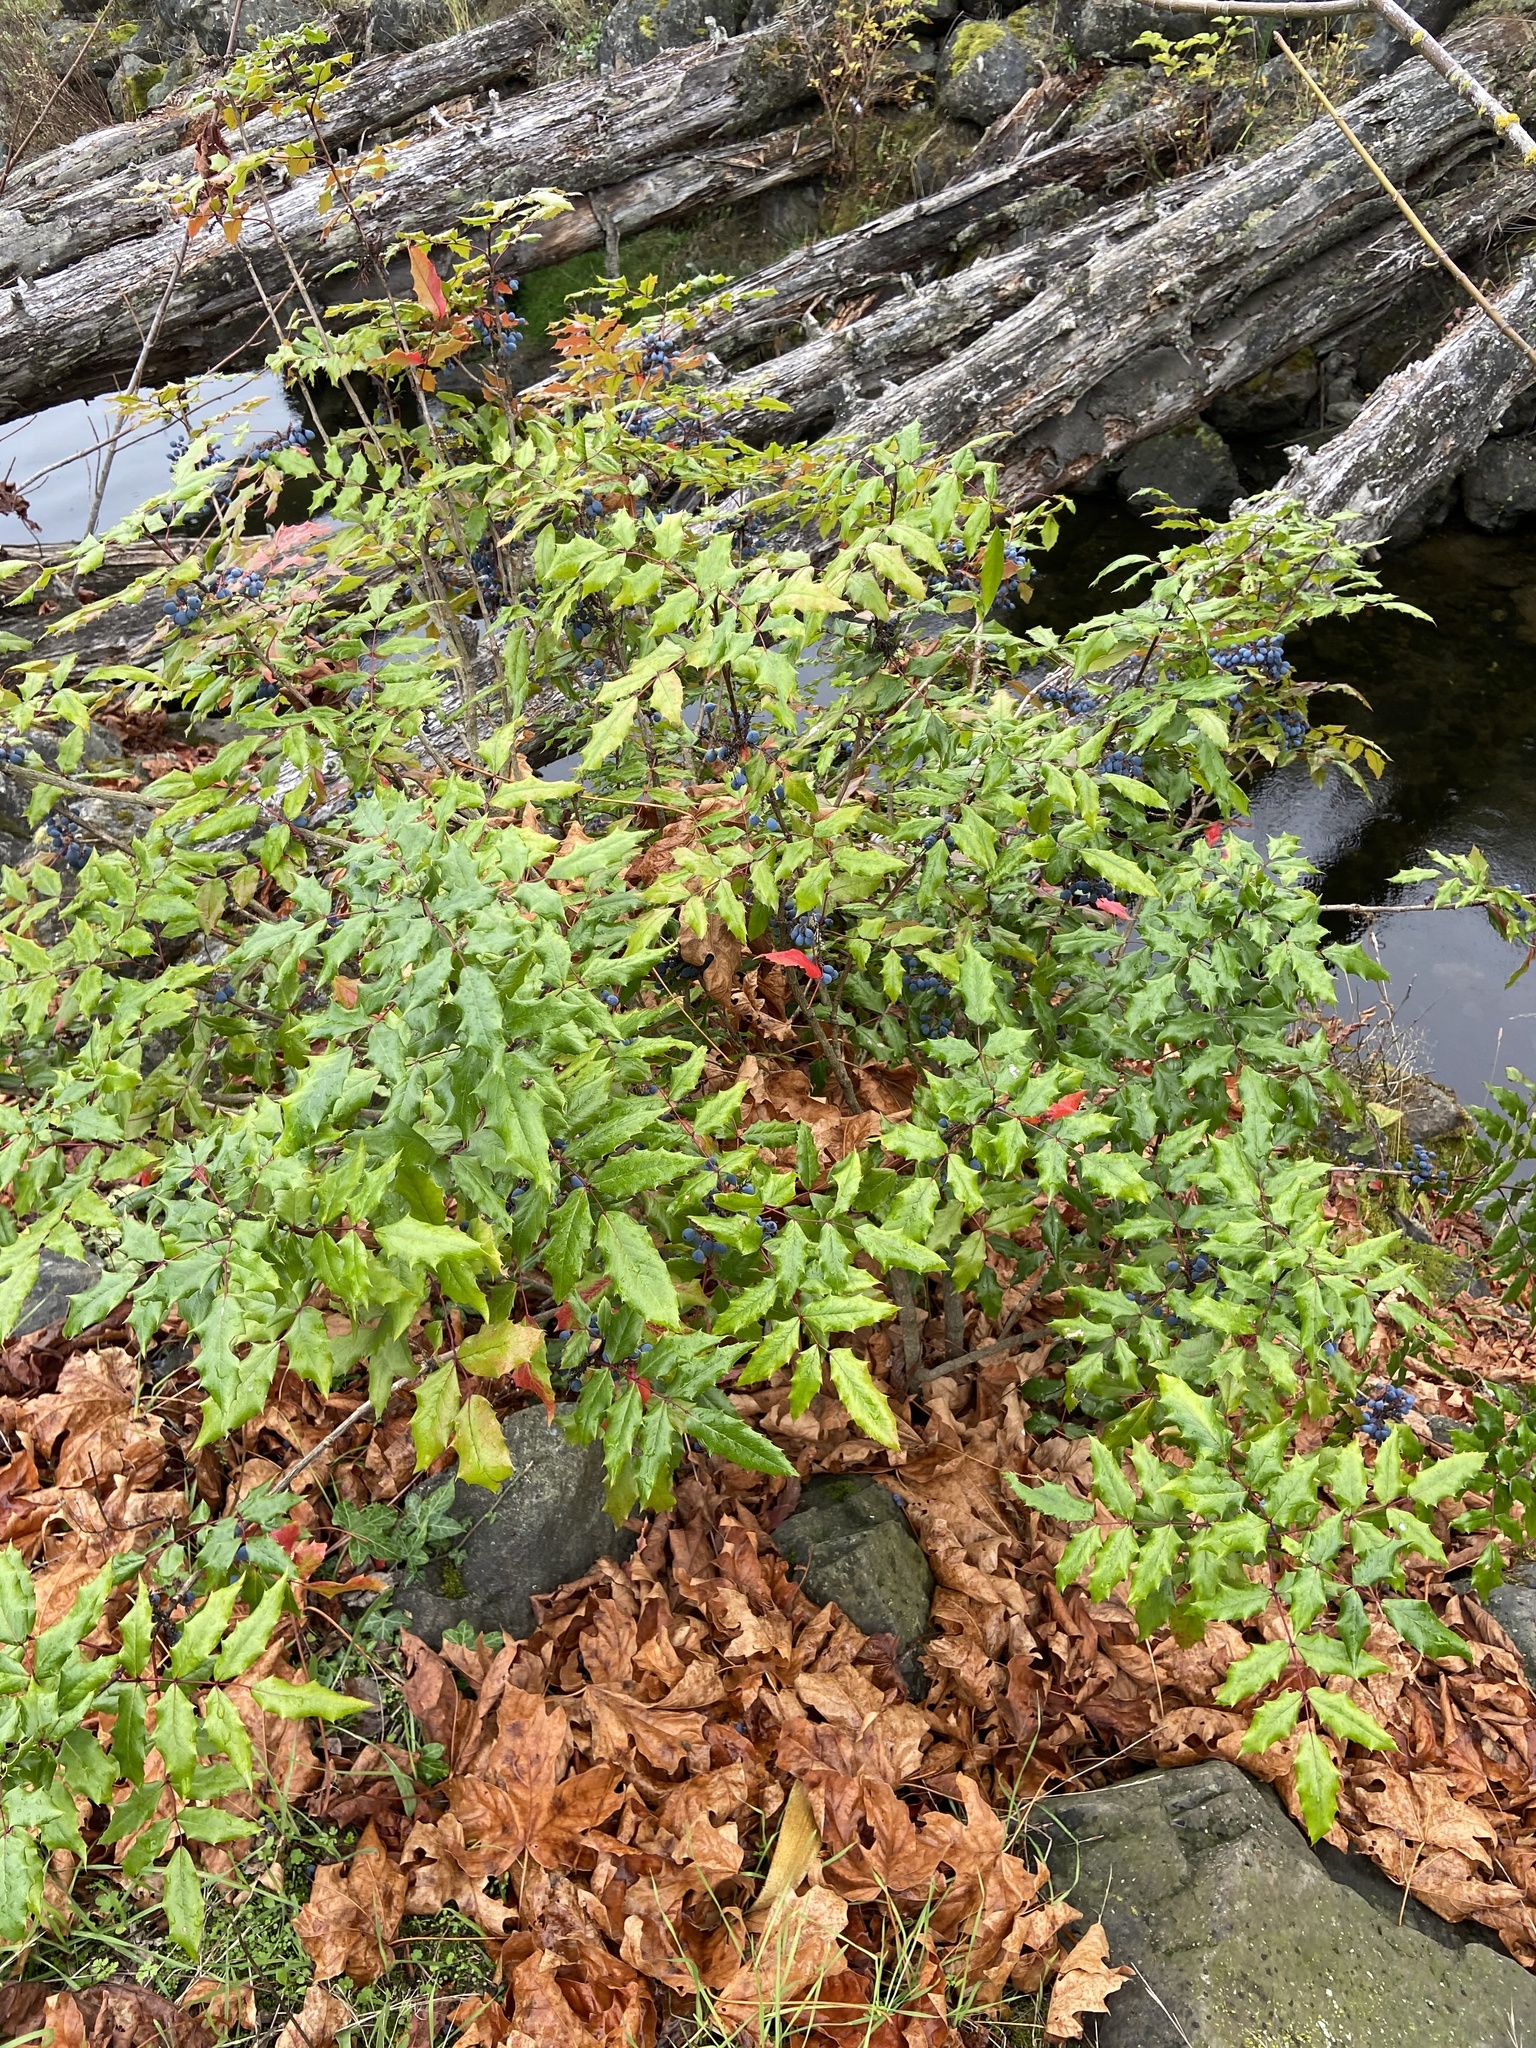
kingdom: Plantae
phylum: Tracheophyta
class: Magnoliopsida
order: Ranunculales
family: Berberidaceae
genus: Mahonia
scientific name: Mahonia aquifolium
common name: Oregon-grape
